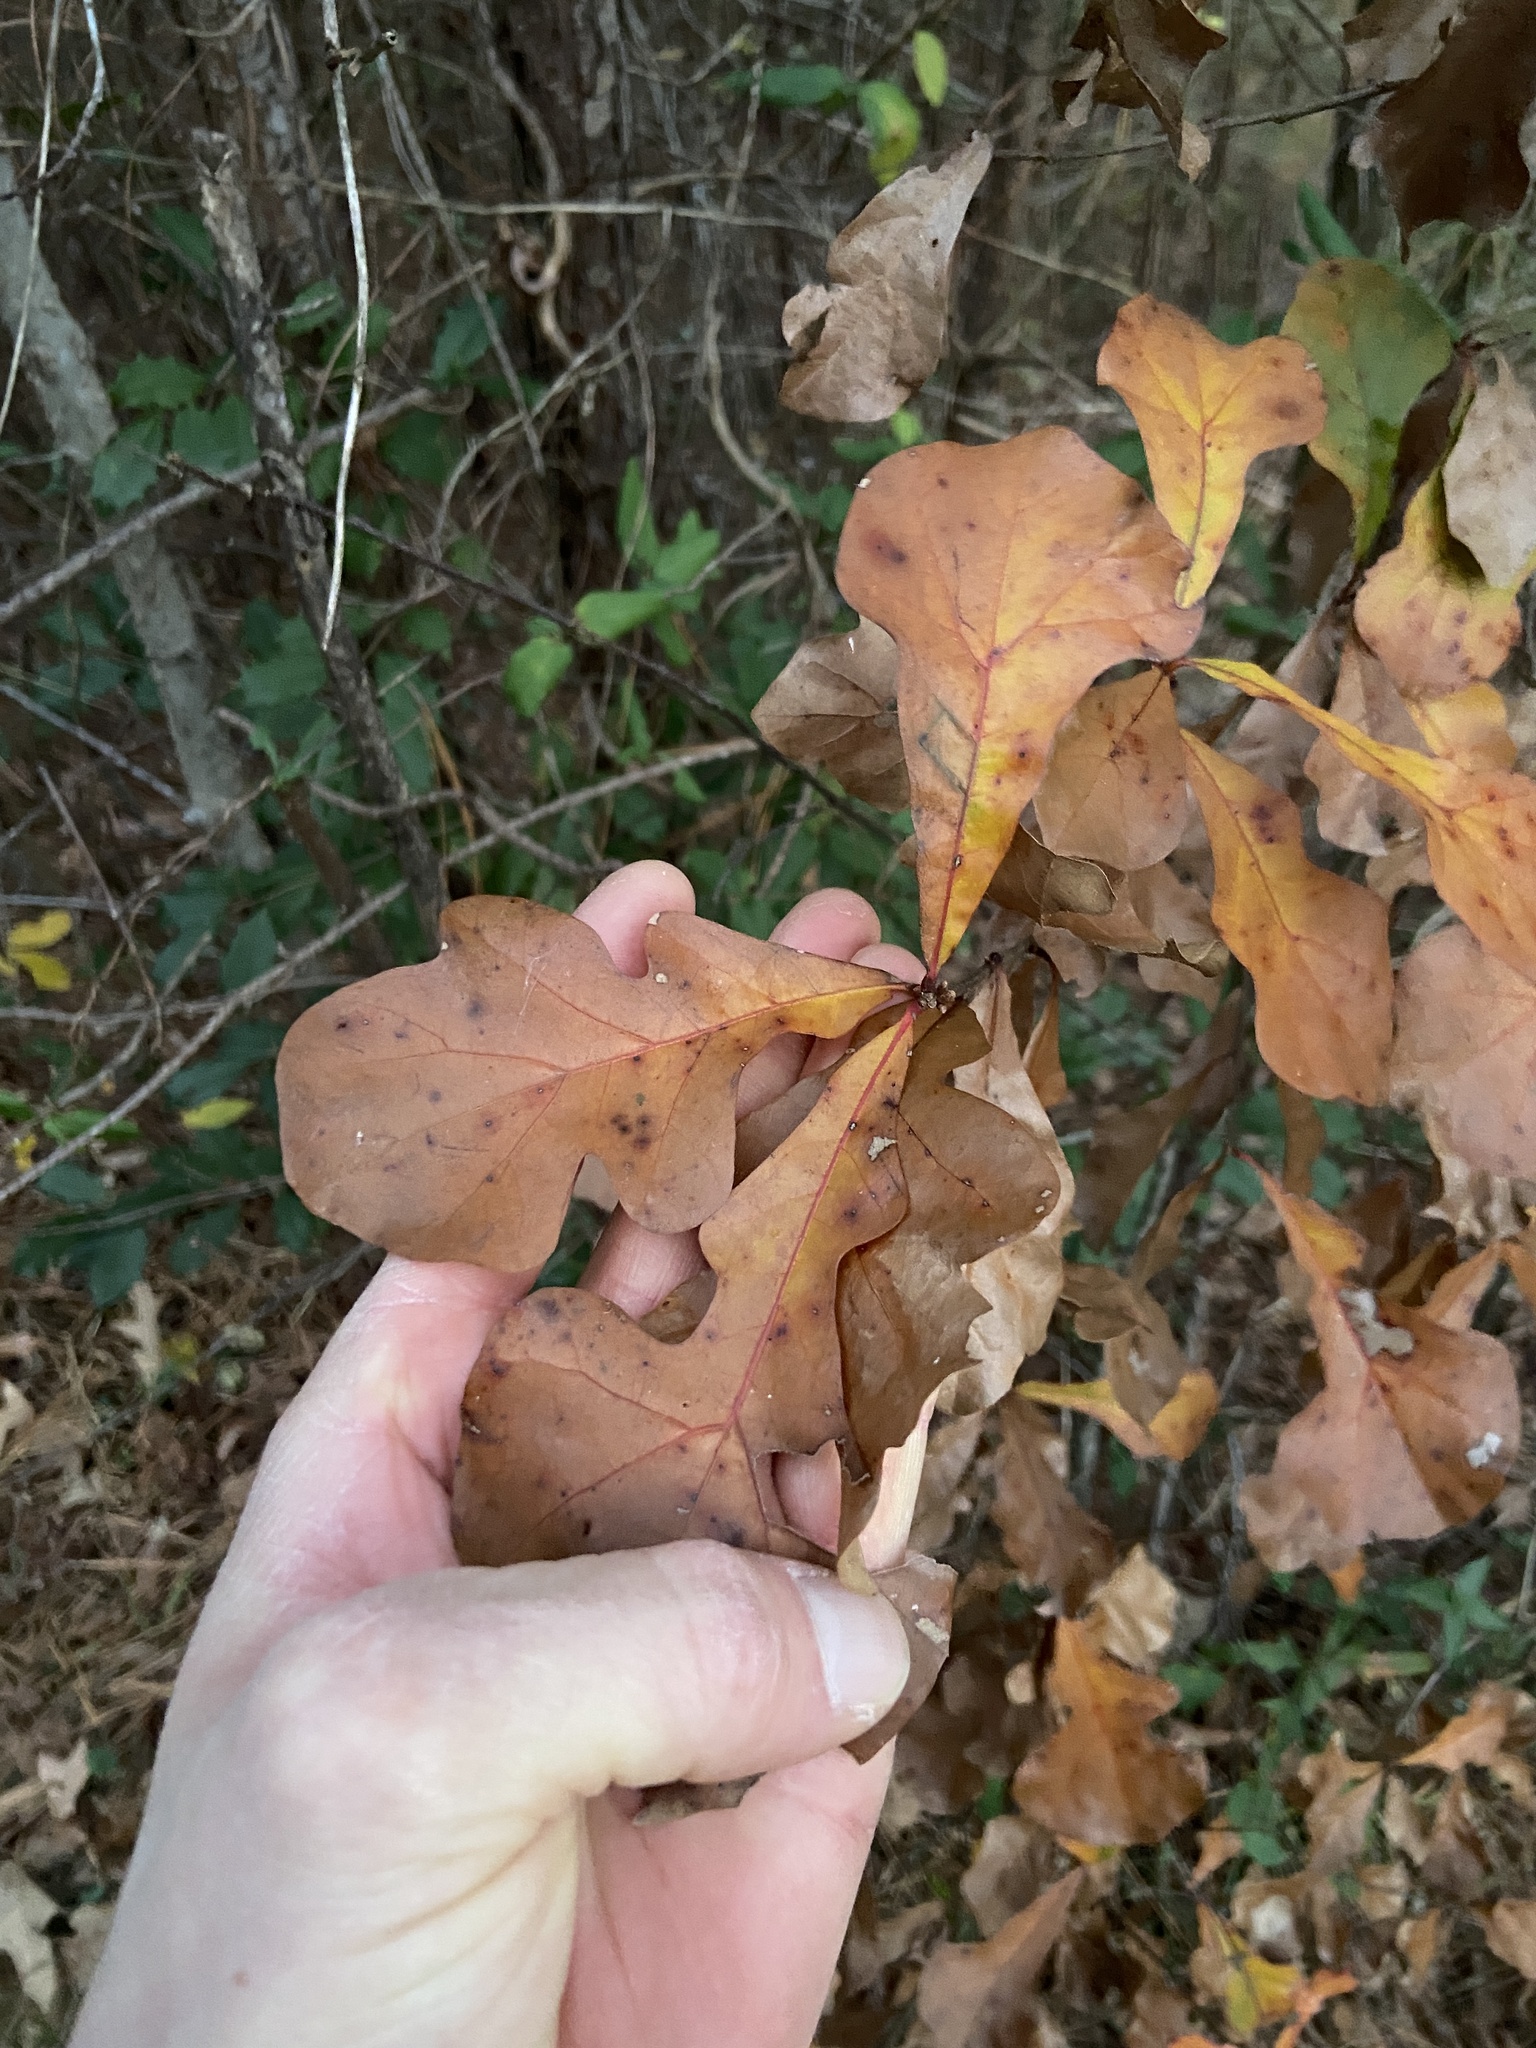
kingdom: Plantae
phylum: Tracheophyta
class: Magnoliopsida
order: Fagales
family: Fagaceae
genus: Quercus
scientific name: Quercus nigra
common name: Water oak
